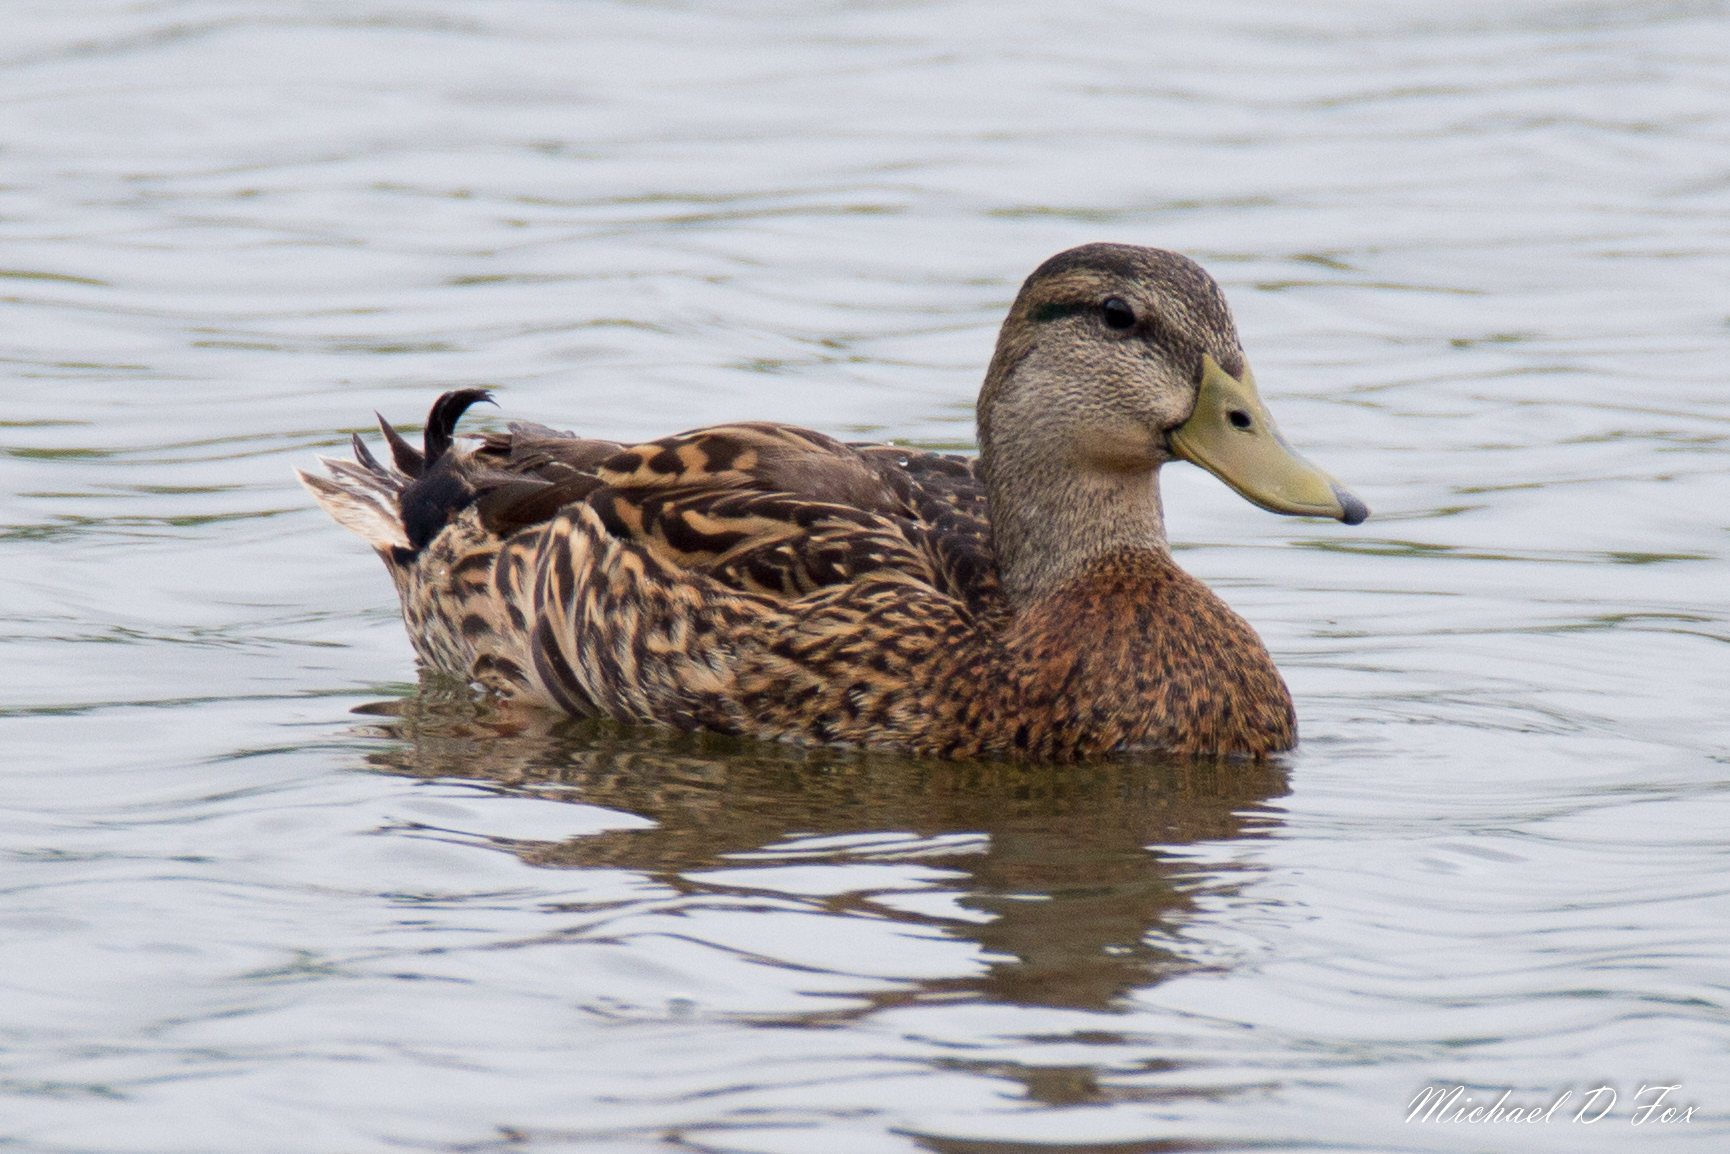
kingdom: Animalia
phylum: Chordata
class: Aves
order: Anseriformes
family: Anatidae
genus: Anas
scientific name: Anas platyrhynchos
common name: Mallard
